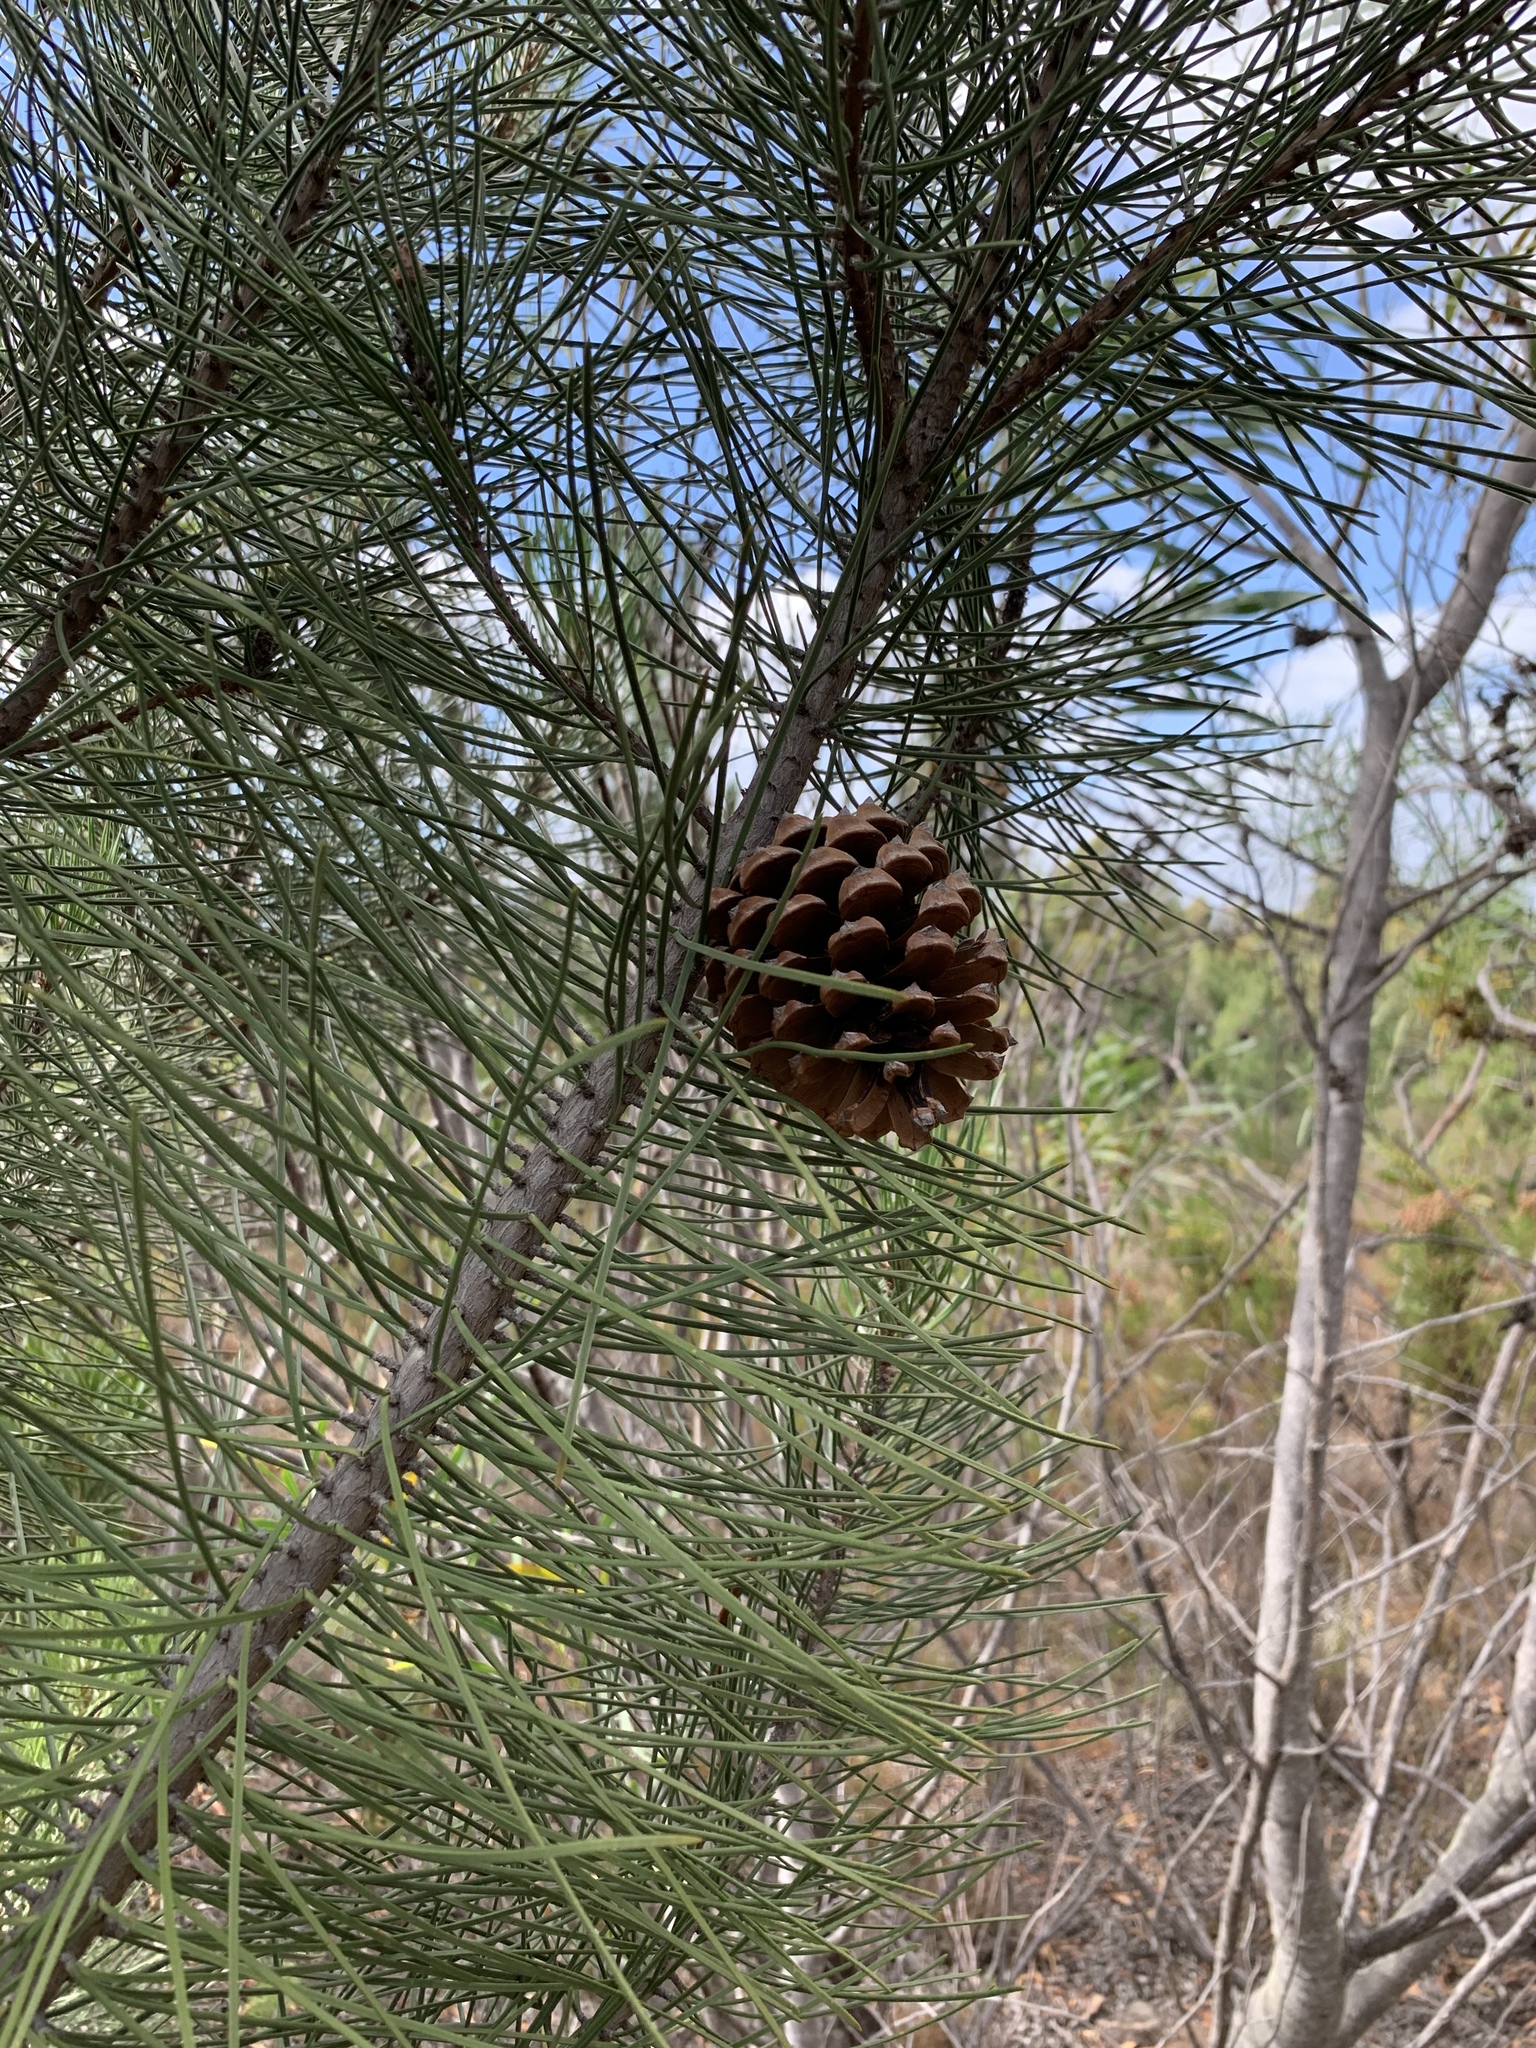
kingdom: Plantae
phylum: Tracheophyta
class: Pinopsida
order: Pinales
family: Pinaceae
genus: Pinus
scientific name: Pinus pinaster
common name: Maritime pine
